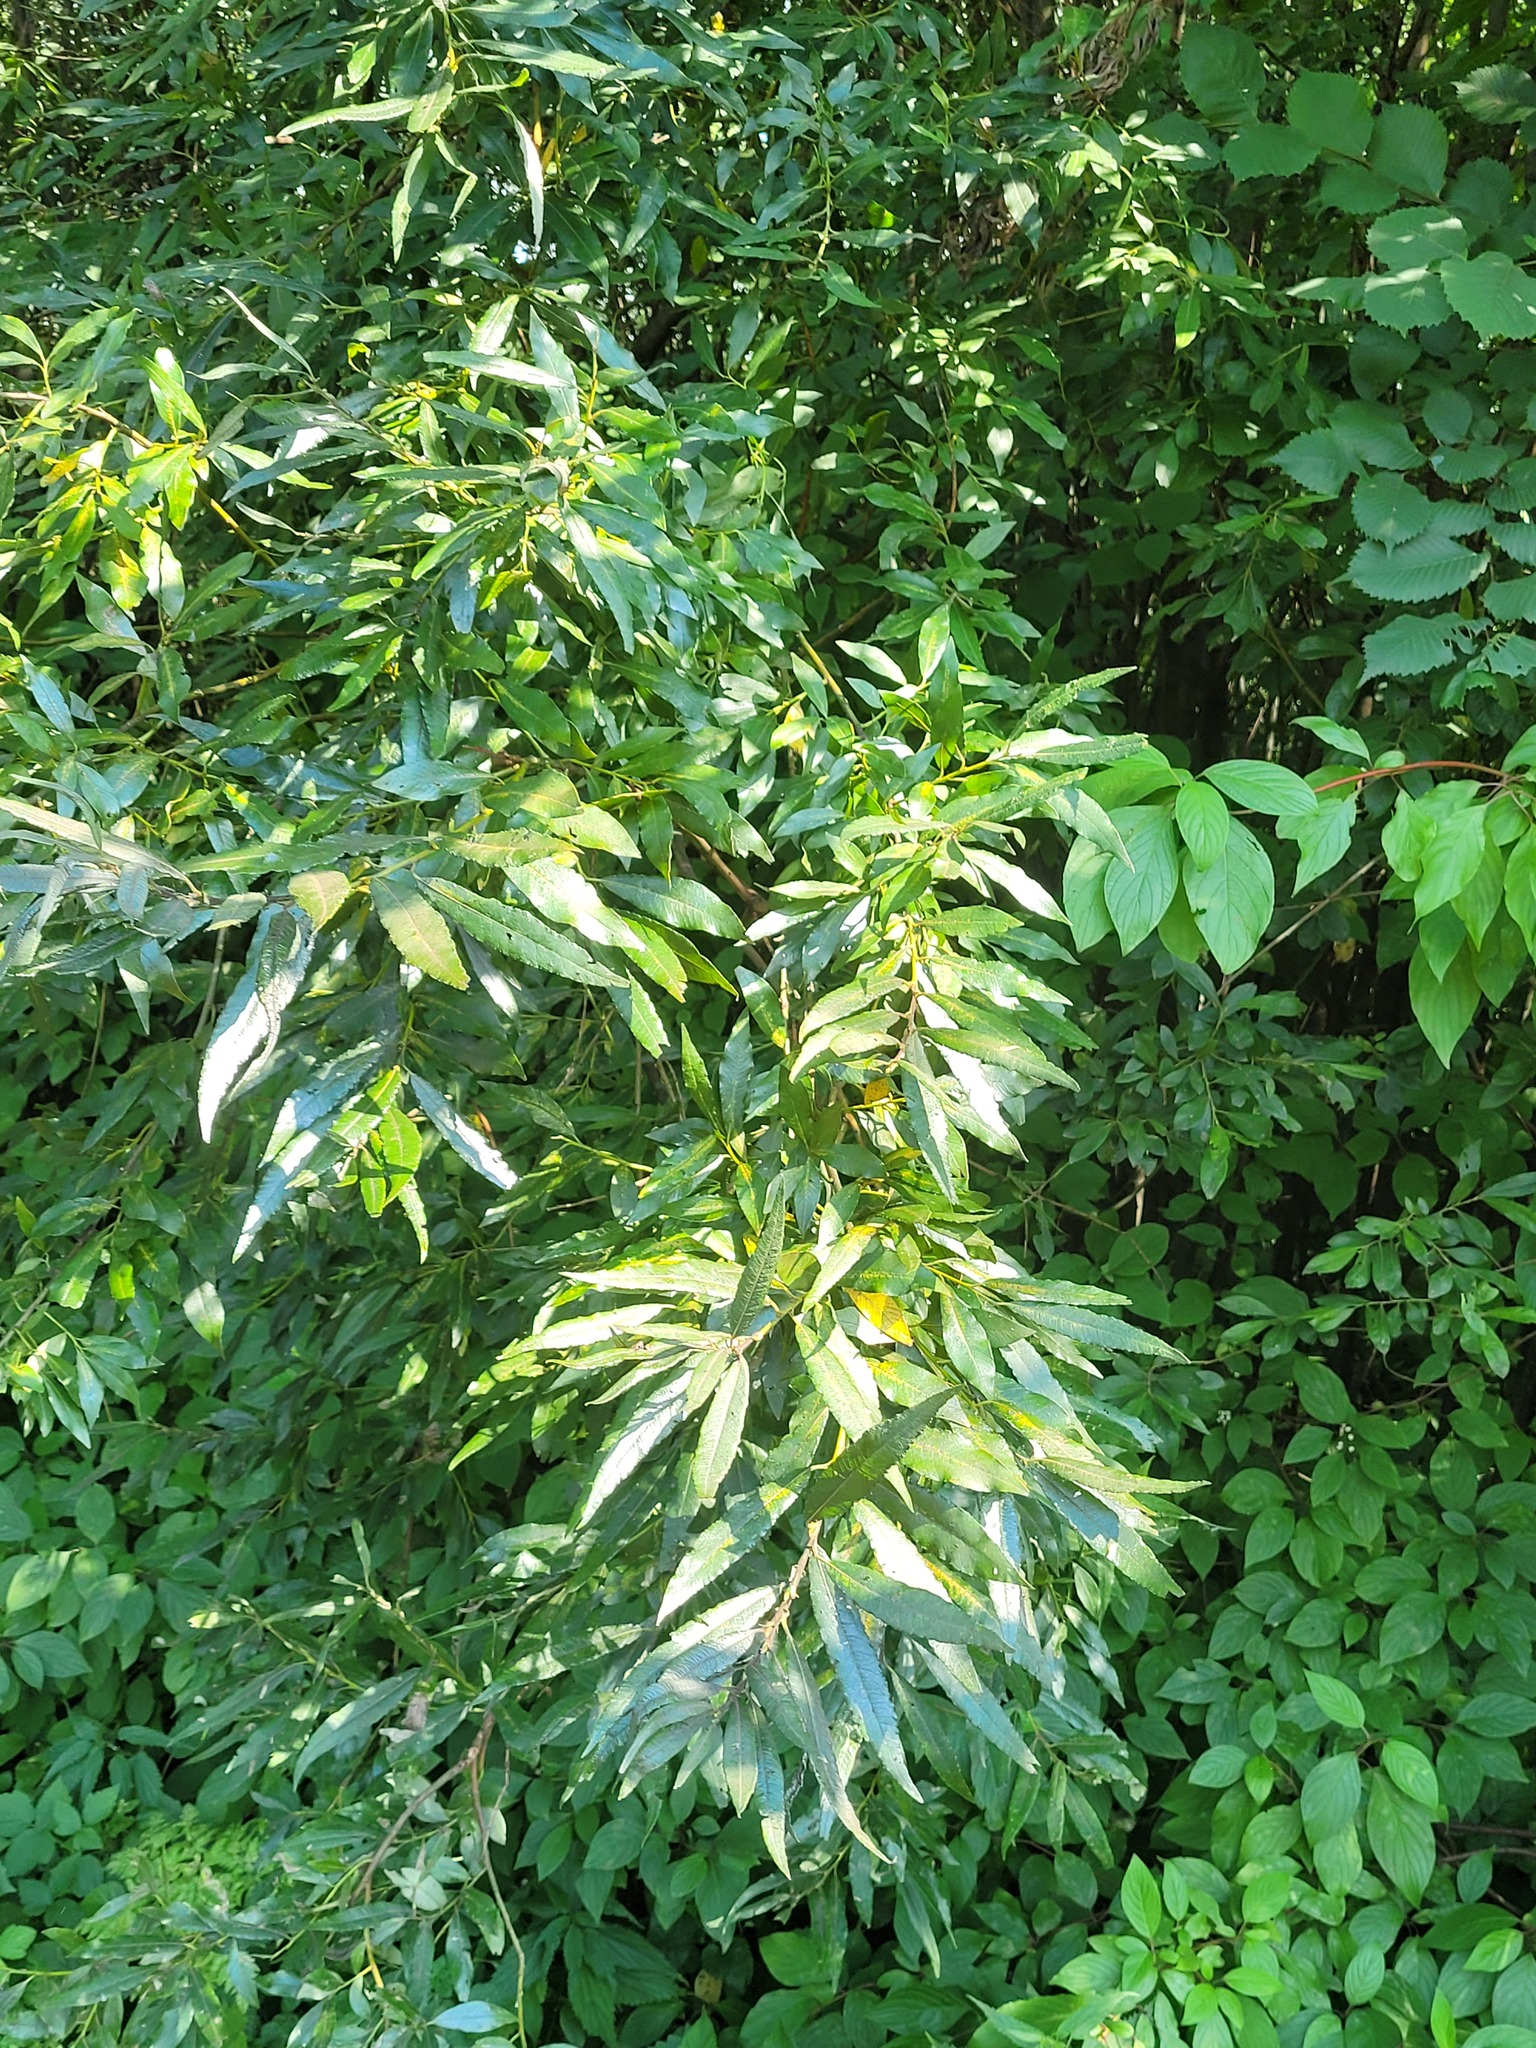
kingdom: Plantae
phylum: Tracheophyta
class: Magnoliopsida
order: Malpighiales
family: Salicaceae
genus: Salix
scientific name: Salix gmelinii
